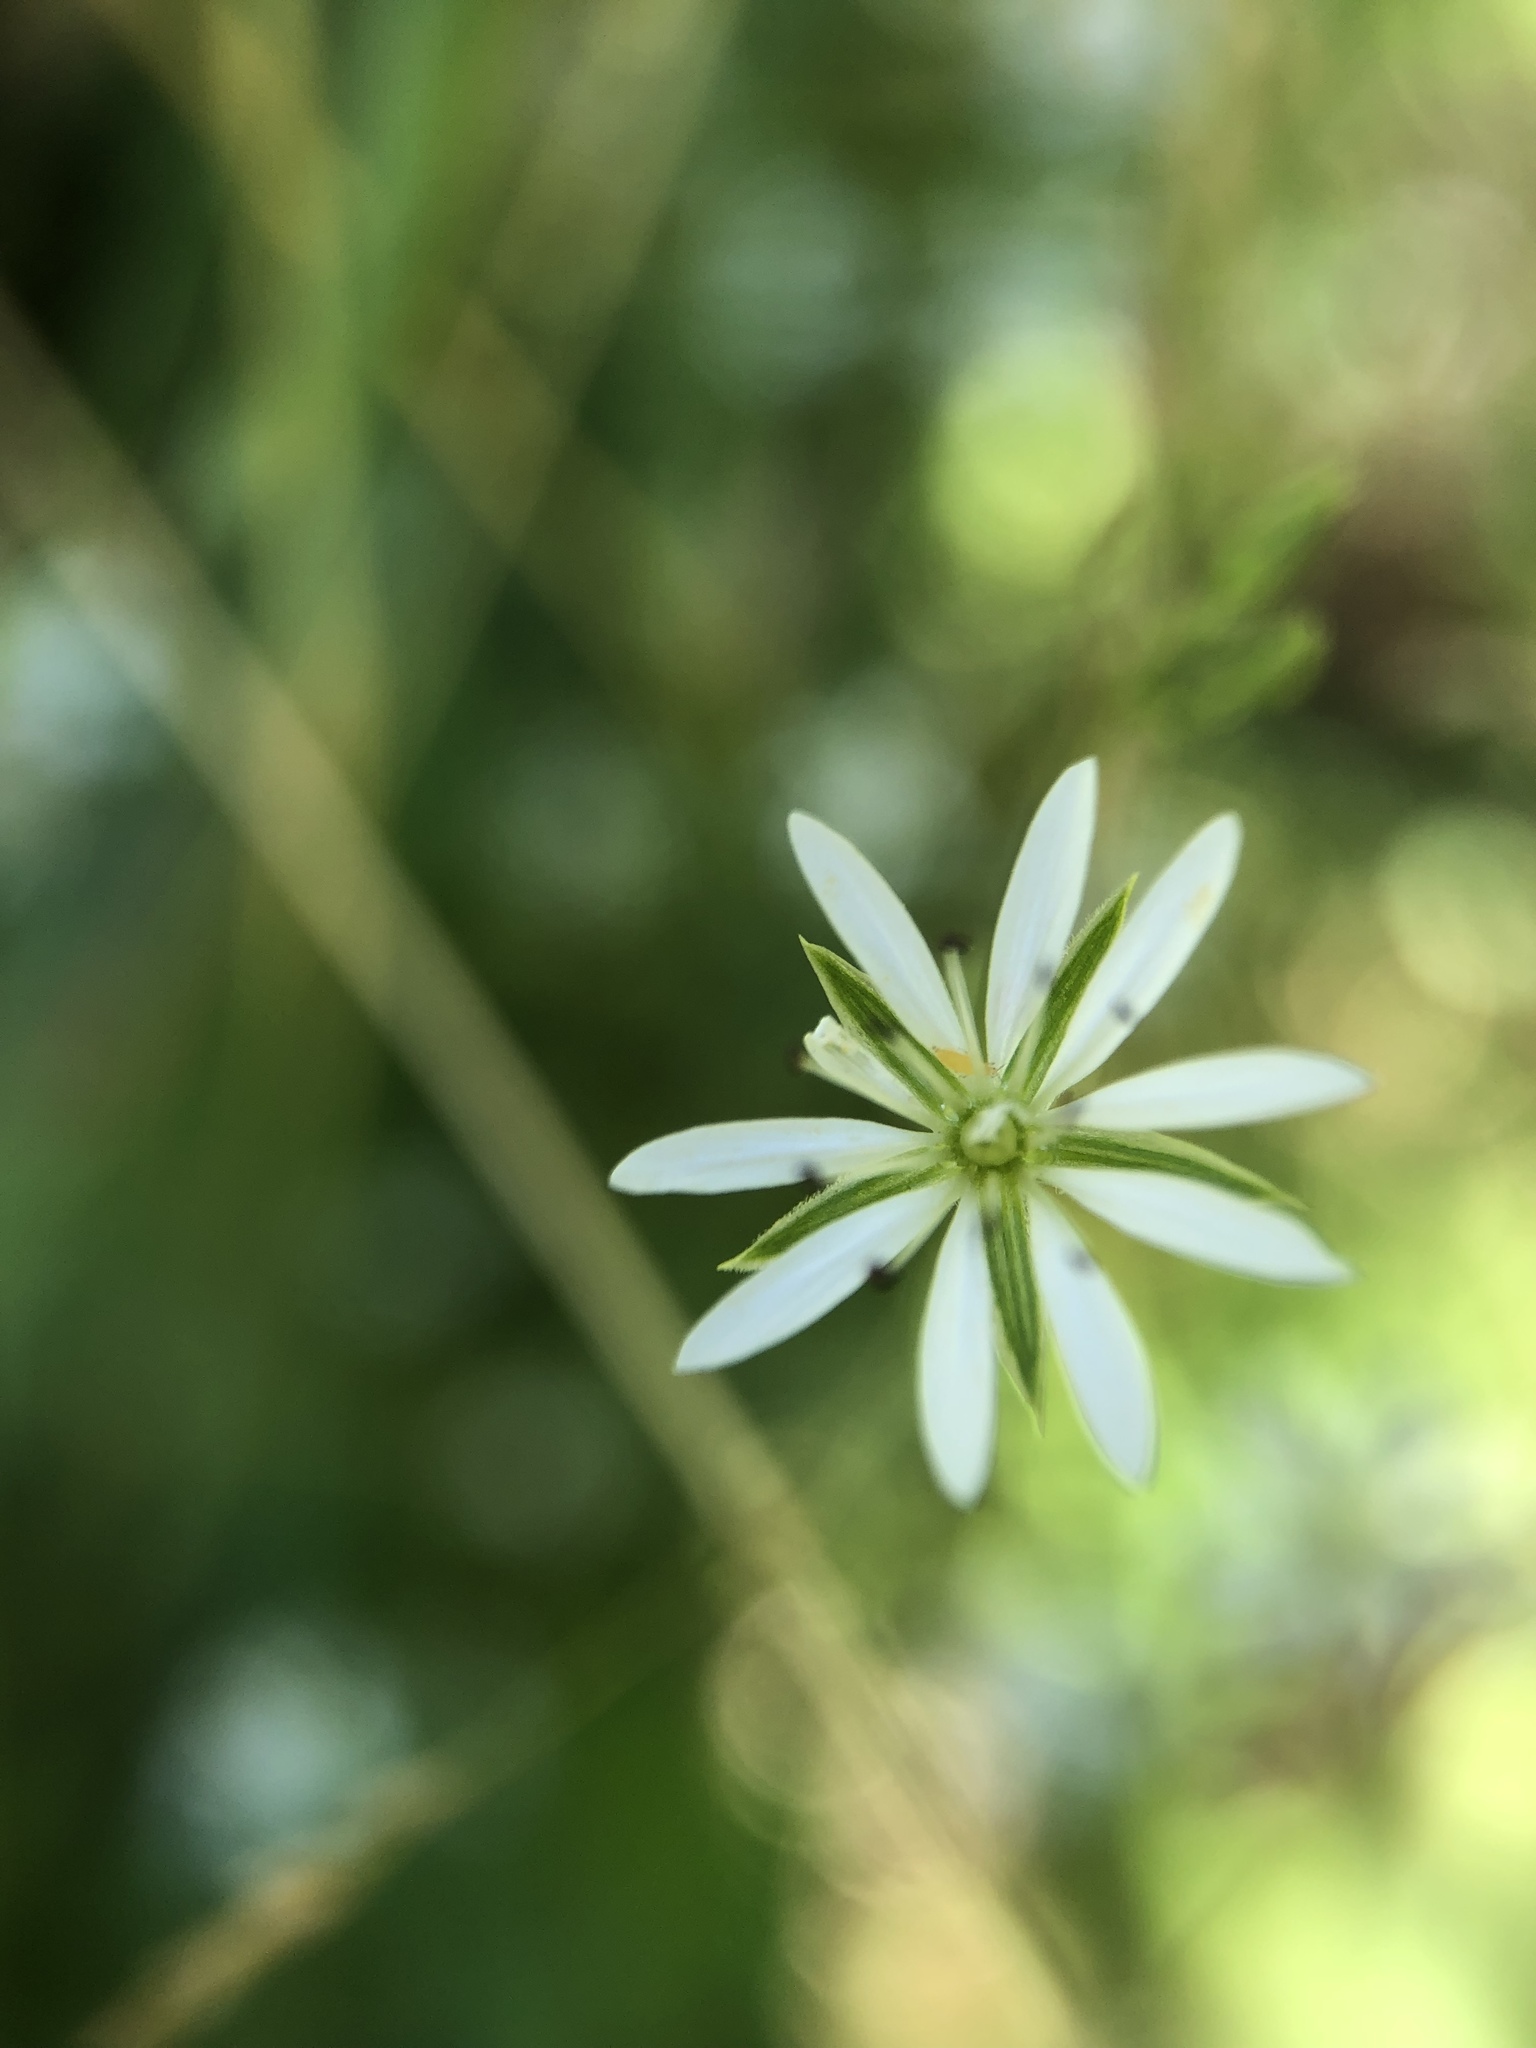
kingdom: Plantae
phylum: Tracheophyta
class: Magnoliopsida
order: Caryophyllales
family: Caryophyllaceae
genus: Stellaria
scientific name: Stellaria graminea
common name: Grass-like starwort
